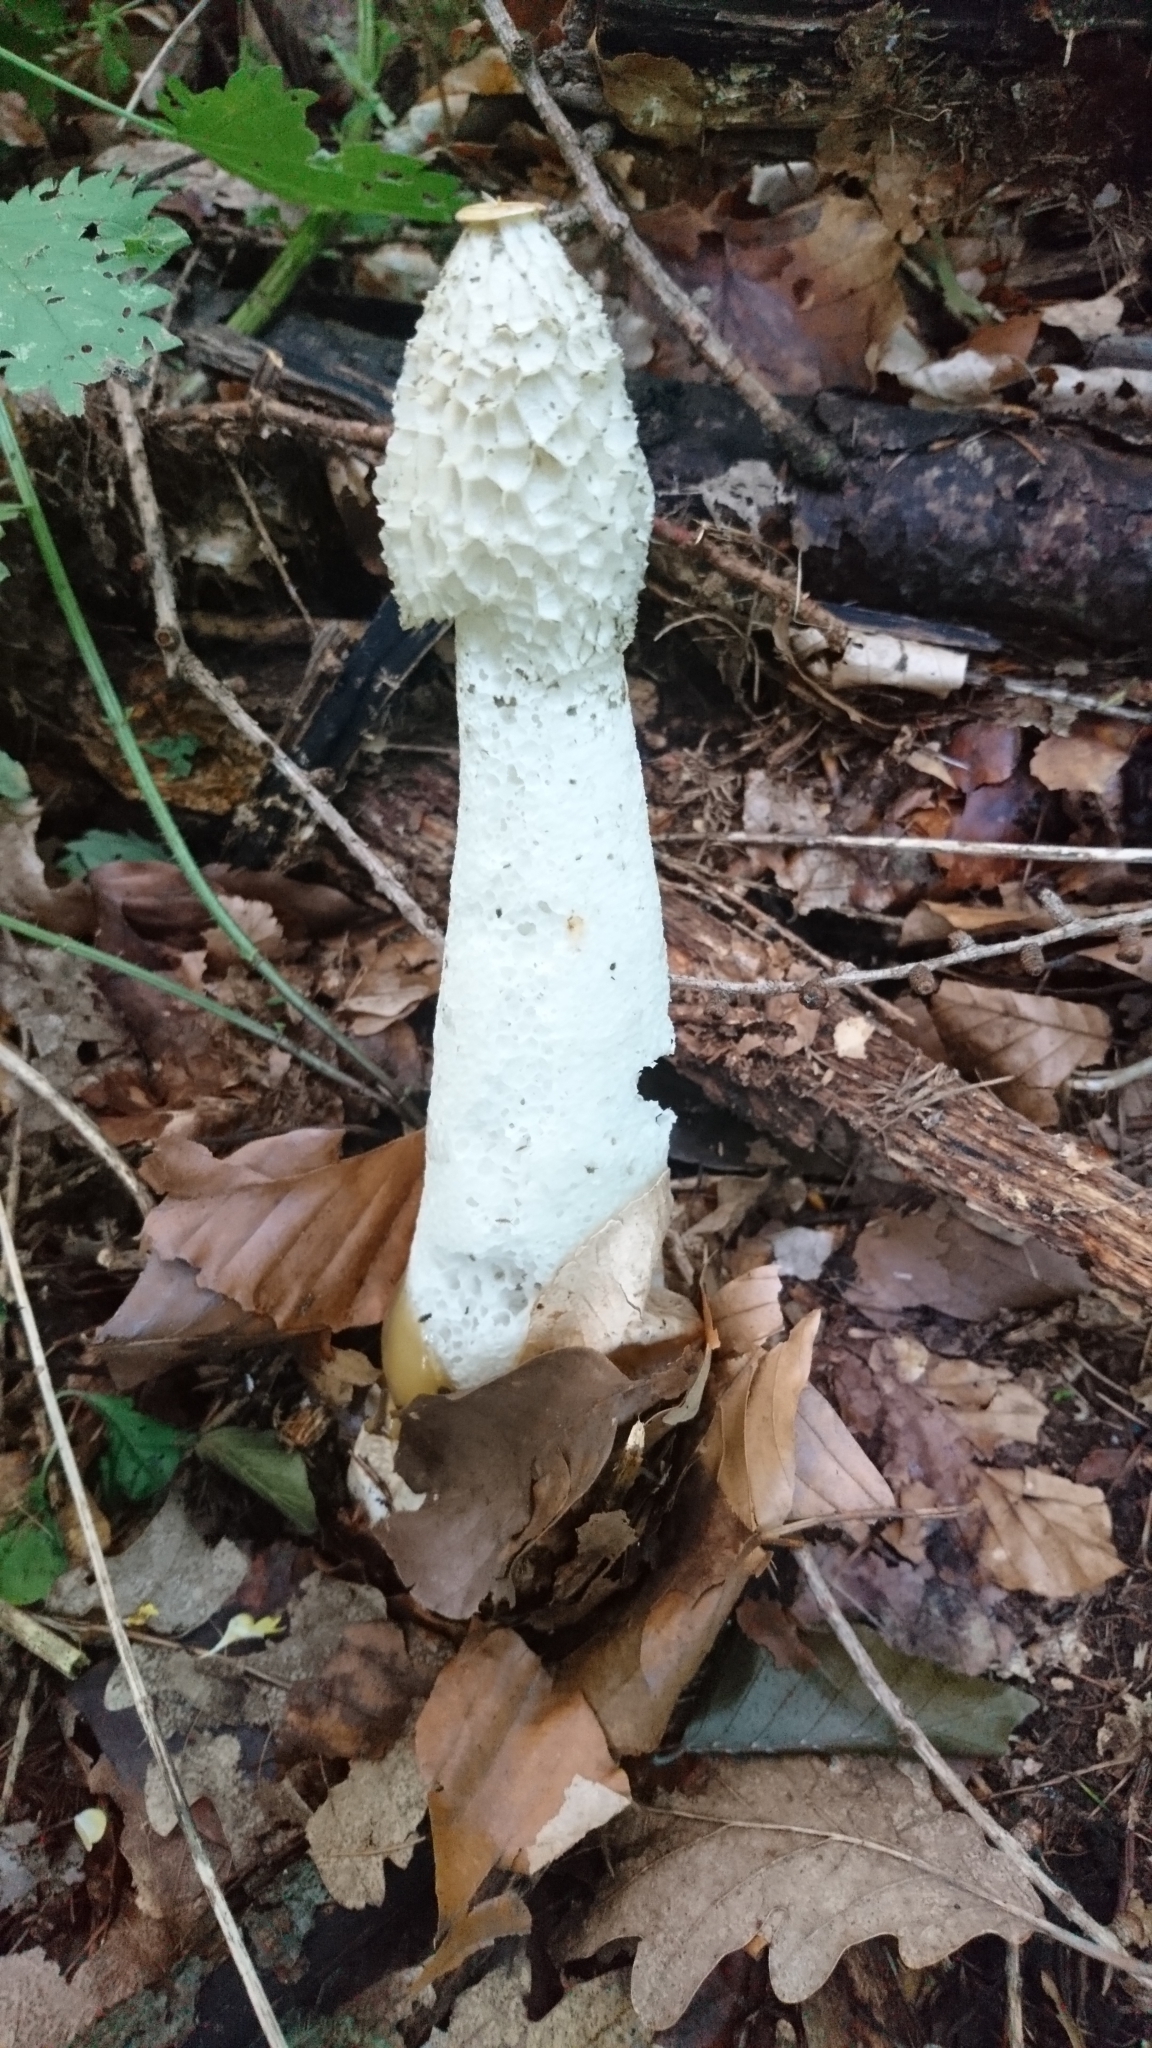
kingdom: Fungi
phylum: Basidiomycota
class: Agaricomycetes
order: Phallales
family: Phallaceae
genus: Phallus
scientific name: Phallus impudicus
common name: Common stinkhorn
